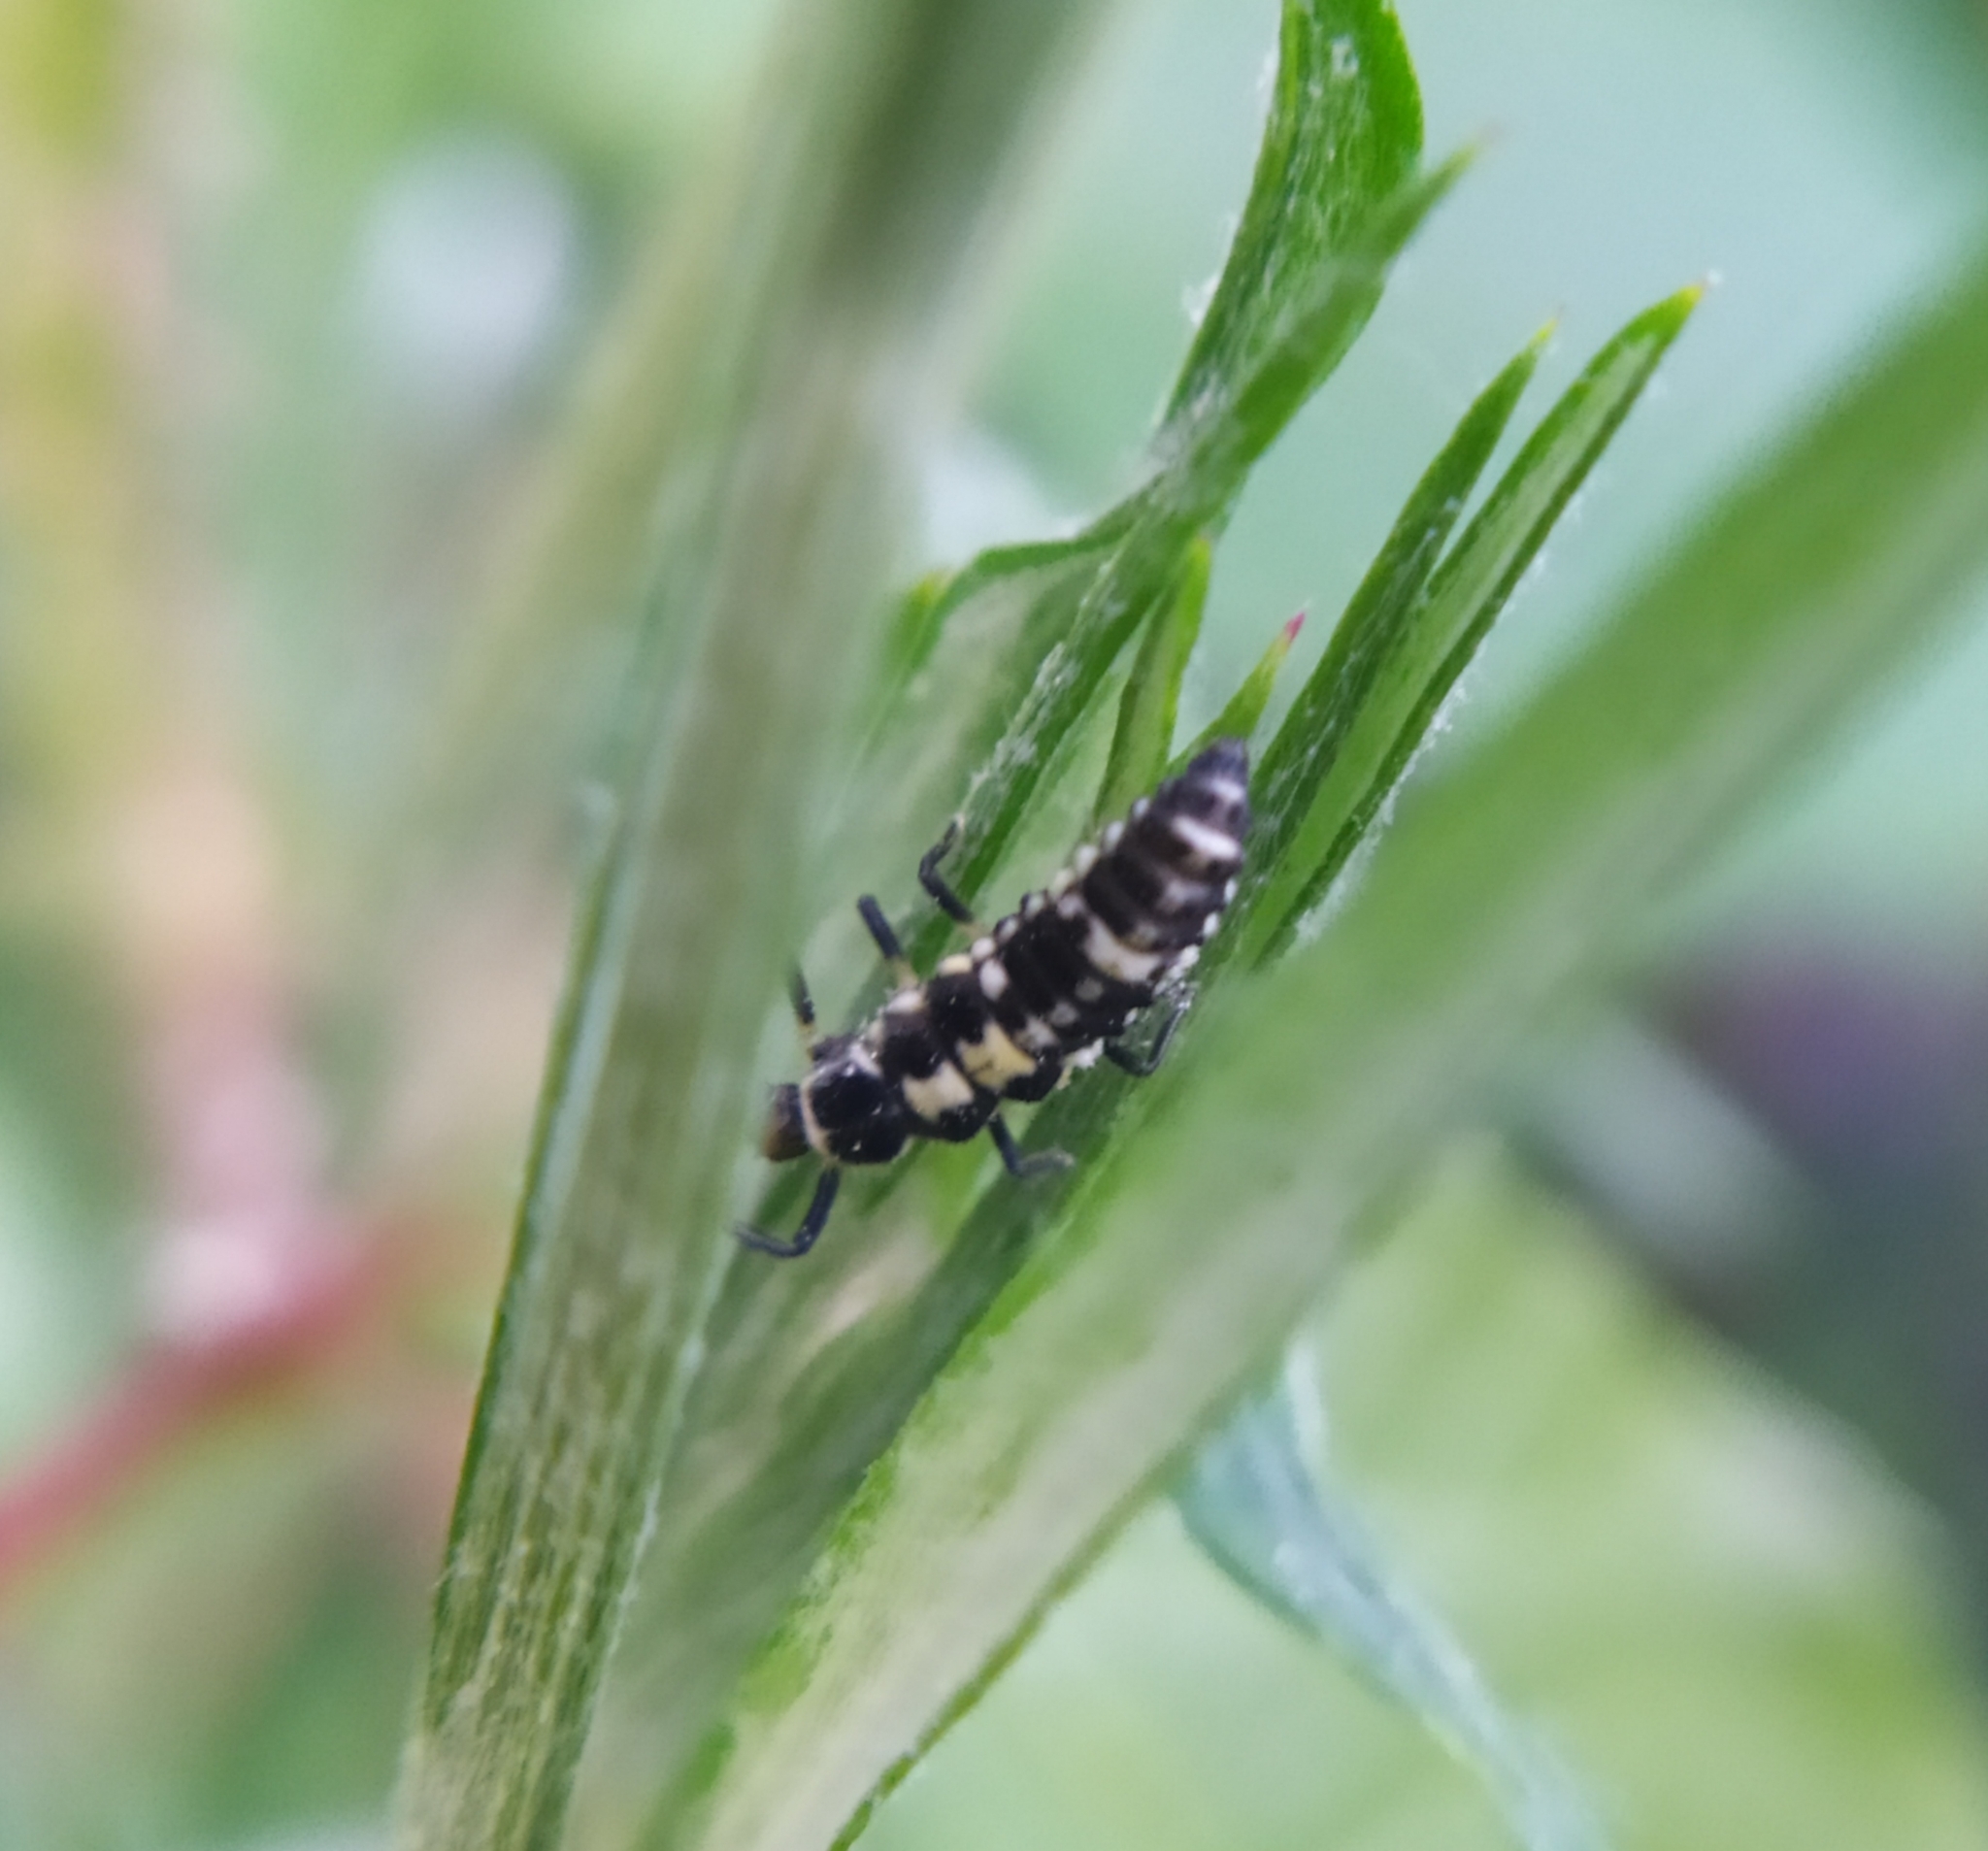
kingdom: Animalia
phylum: Arthropoda
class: Insecta
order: Coleoptera
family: Coccinellidae
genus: Propylaea
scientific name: Propylaea quatuordecimpunctata
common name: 14-spotted ladybird beetle
